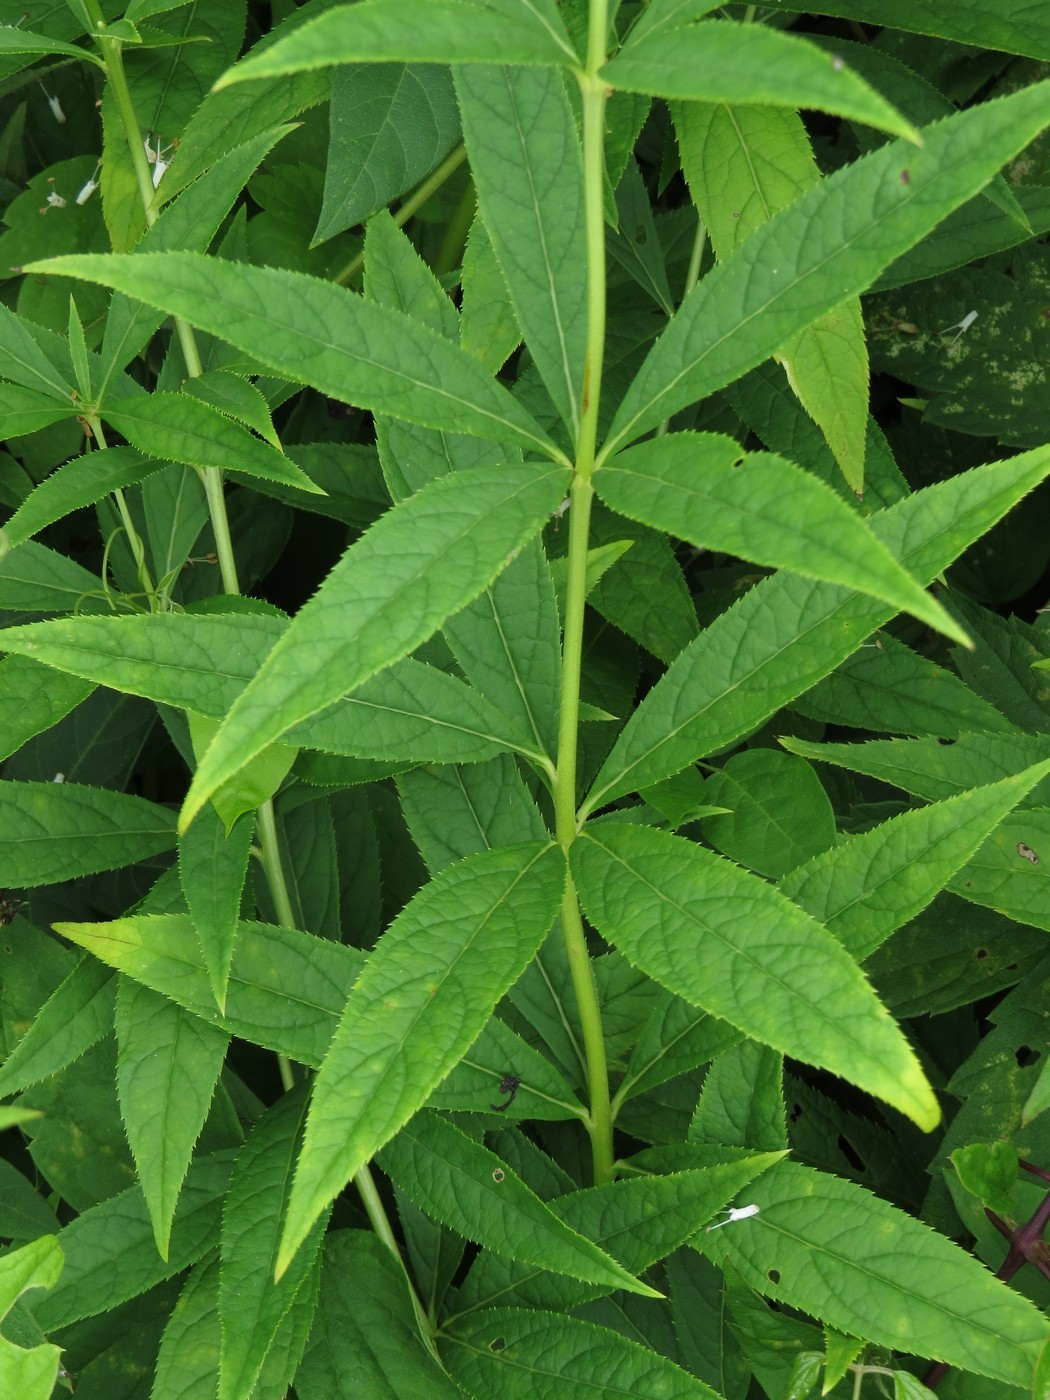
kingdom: Plantae
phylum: Tracheophyta
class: Magnoliopsida
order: Lamiales
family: Plantaginaceae
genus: Veronicastrum
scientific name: Veronicastrum virginicum
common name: Blackroot
